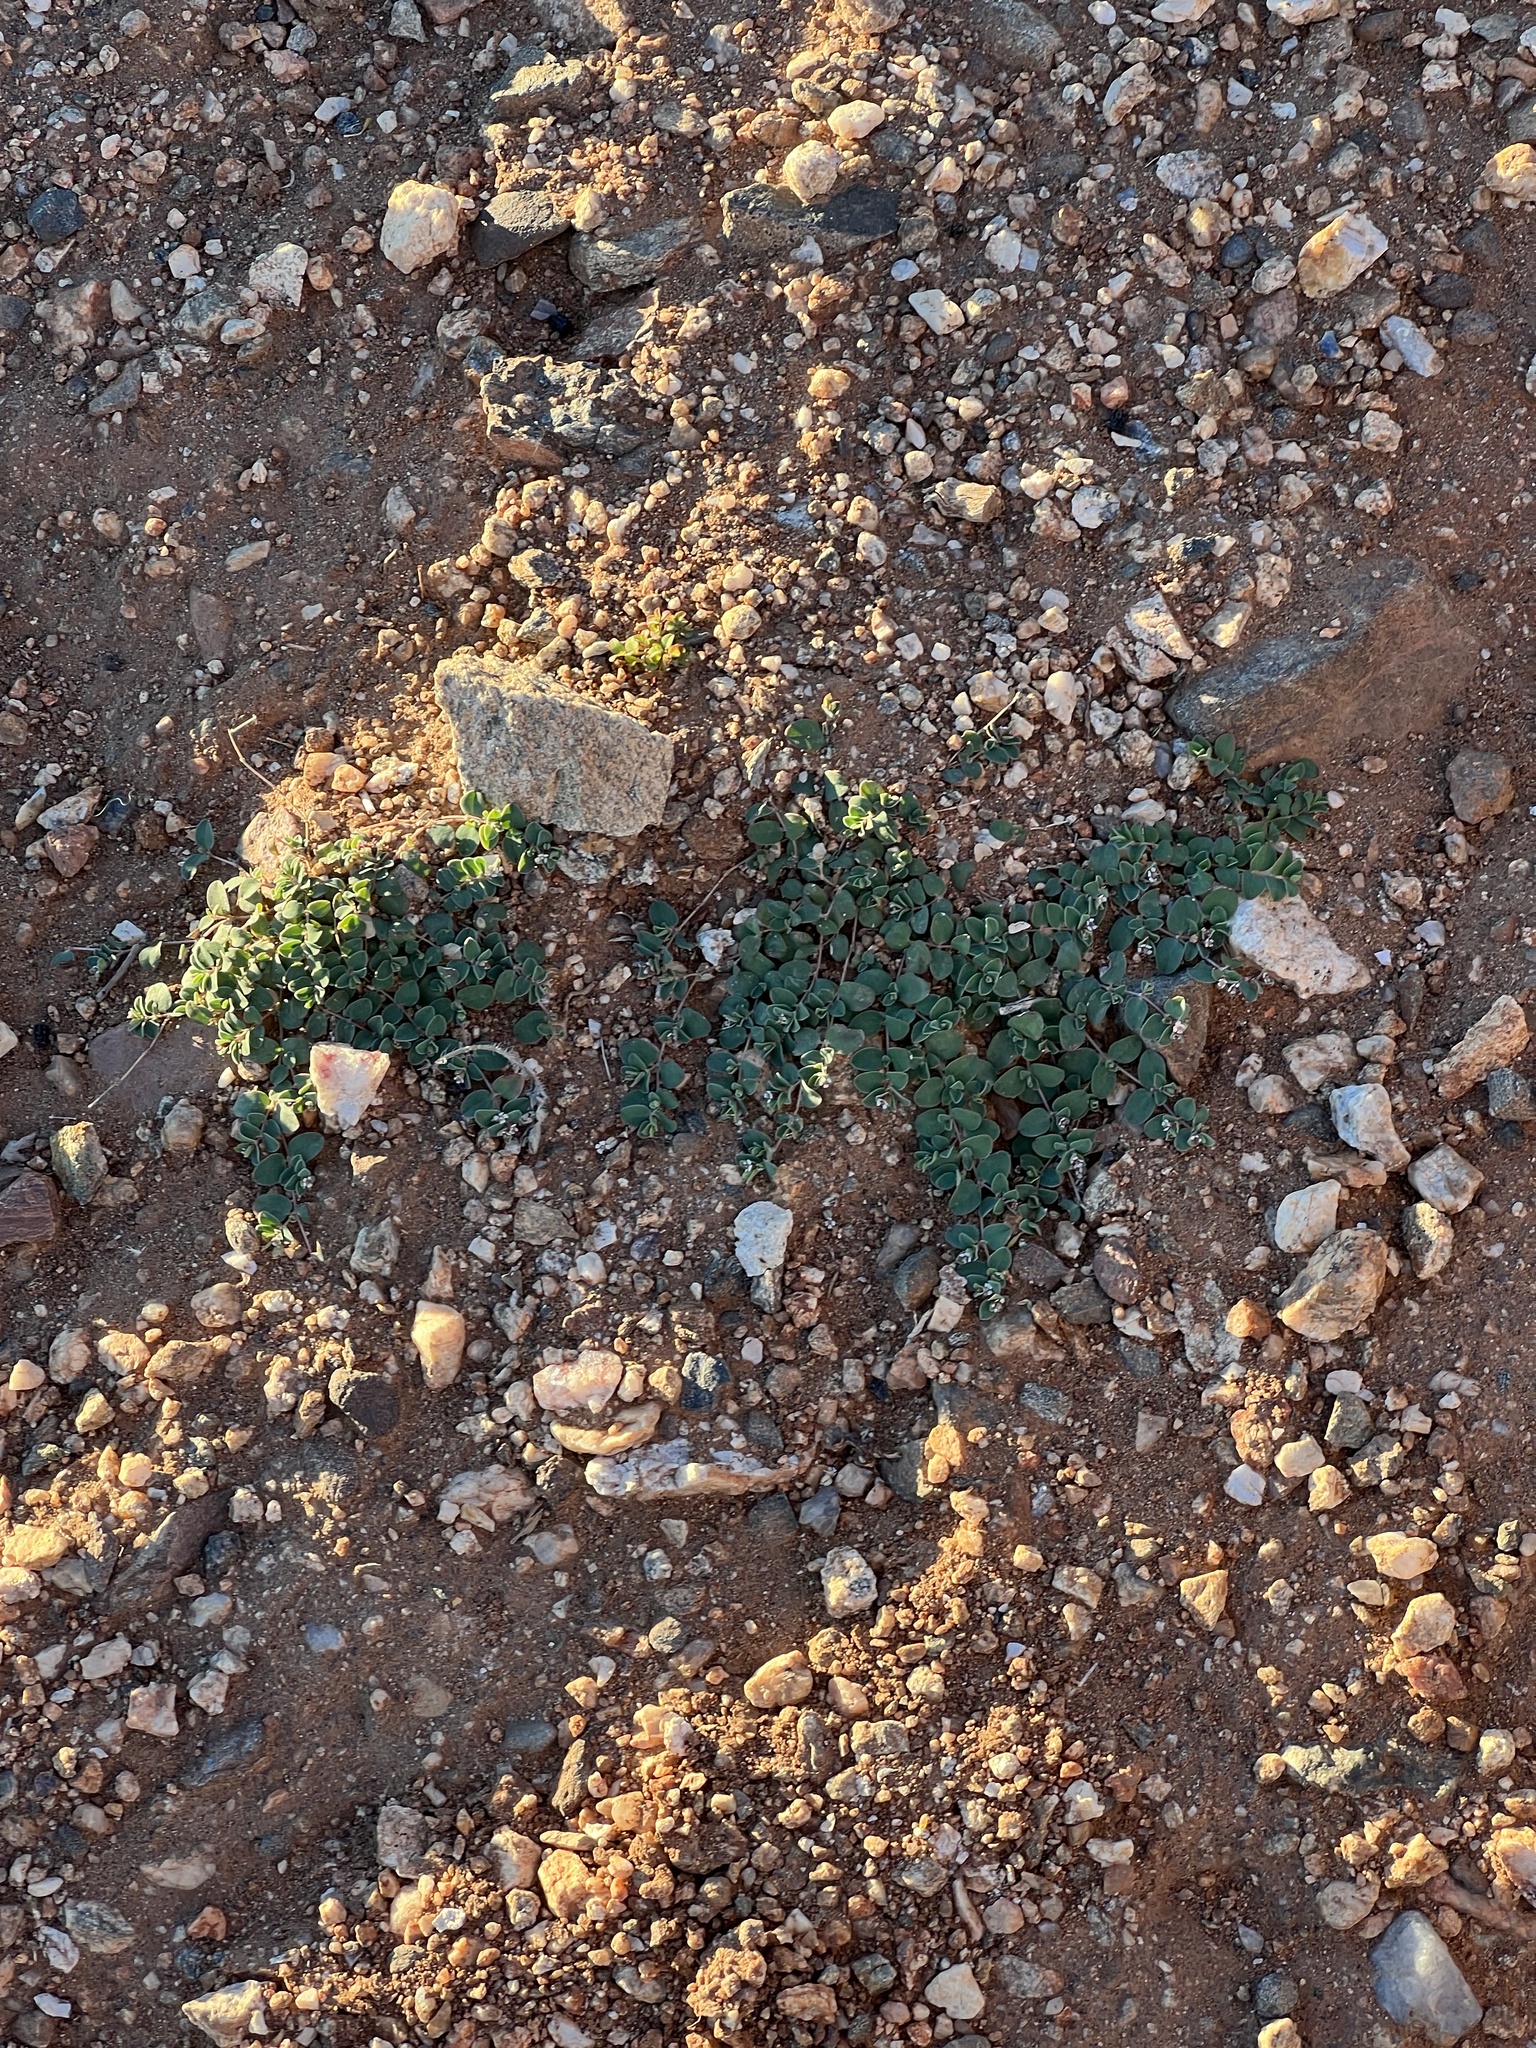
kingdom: Plantae
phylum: Tracheophyta
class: Magnoliopsida
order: Malpighiales
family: Euphorbiaceae
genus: Euphorbia
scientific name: Euphorbia albomarginata
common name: Whitemargin sandmat
